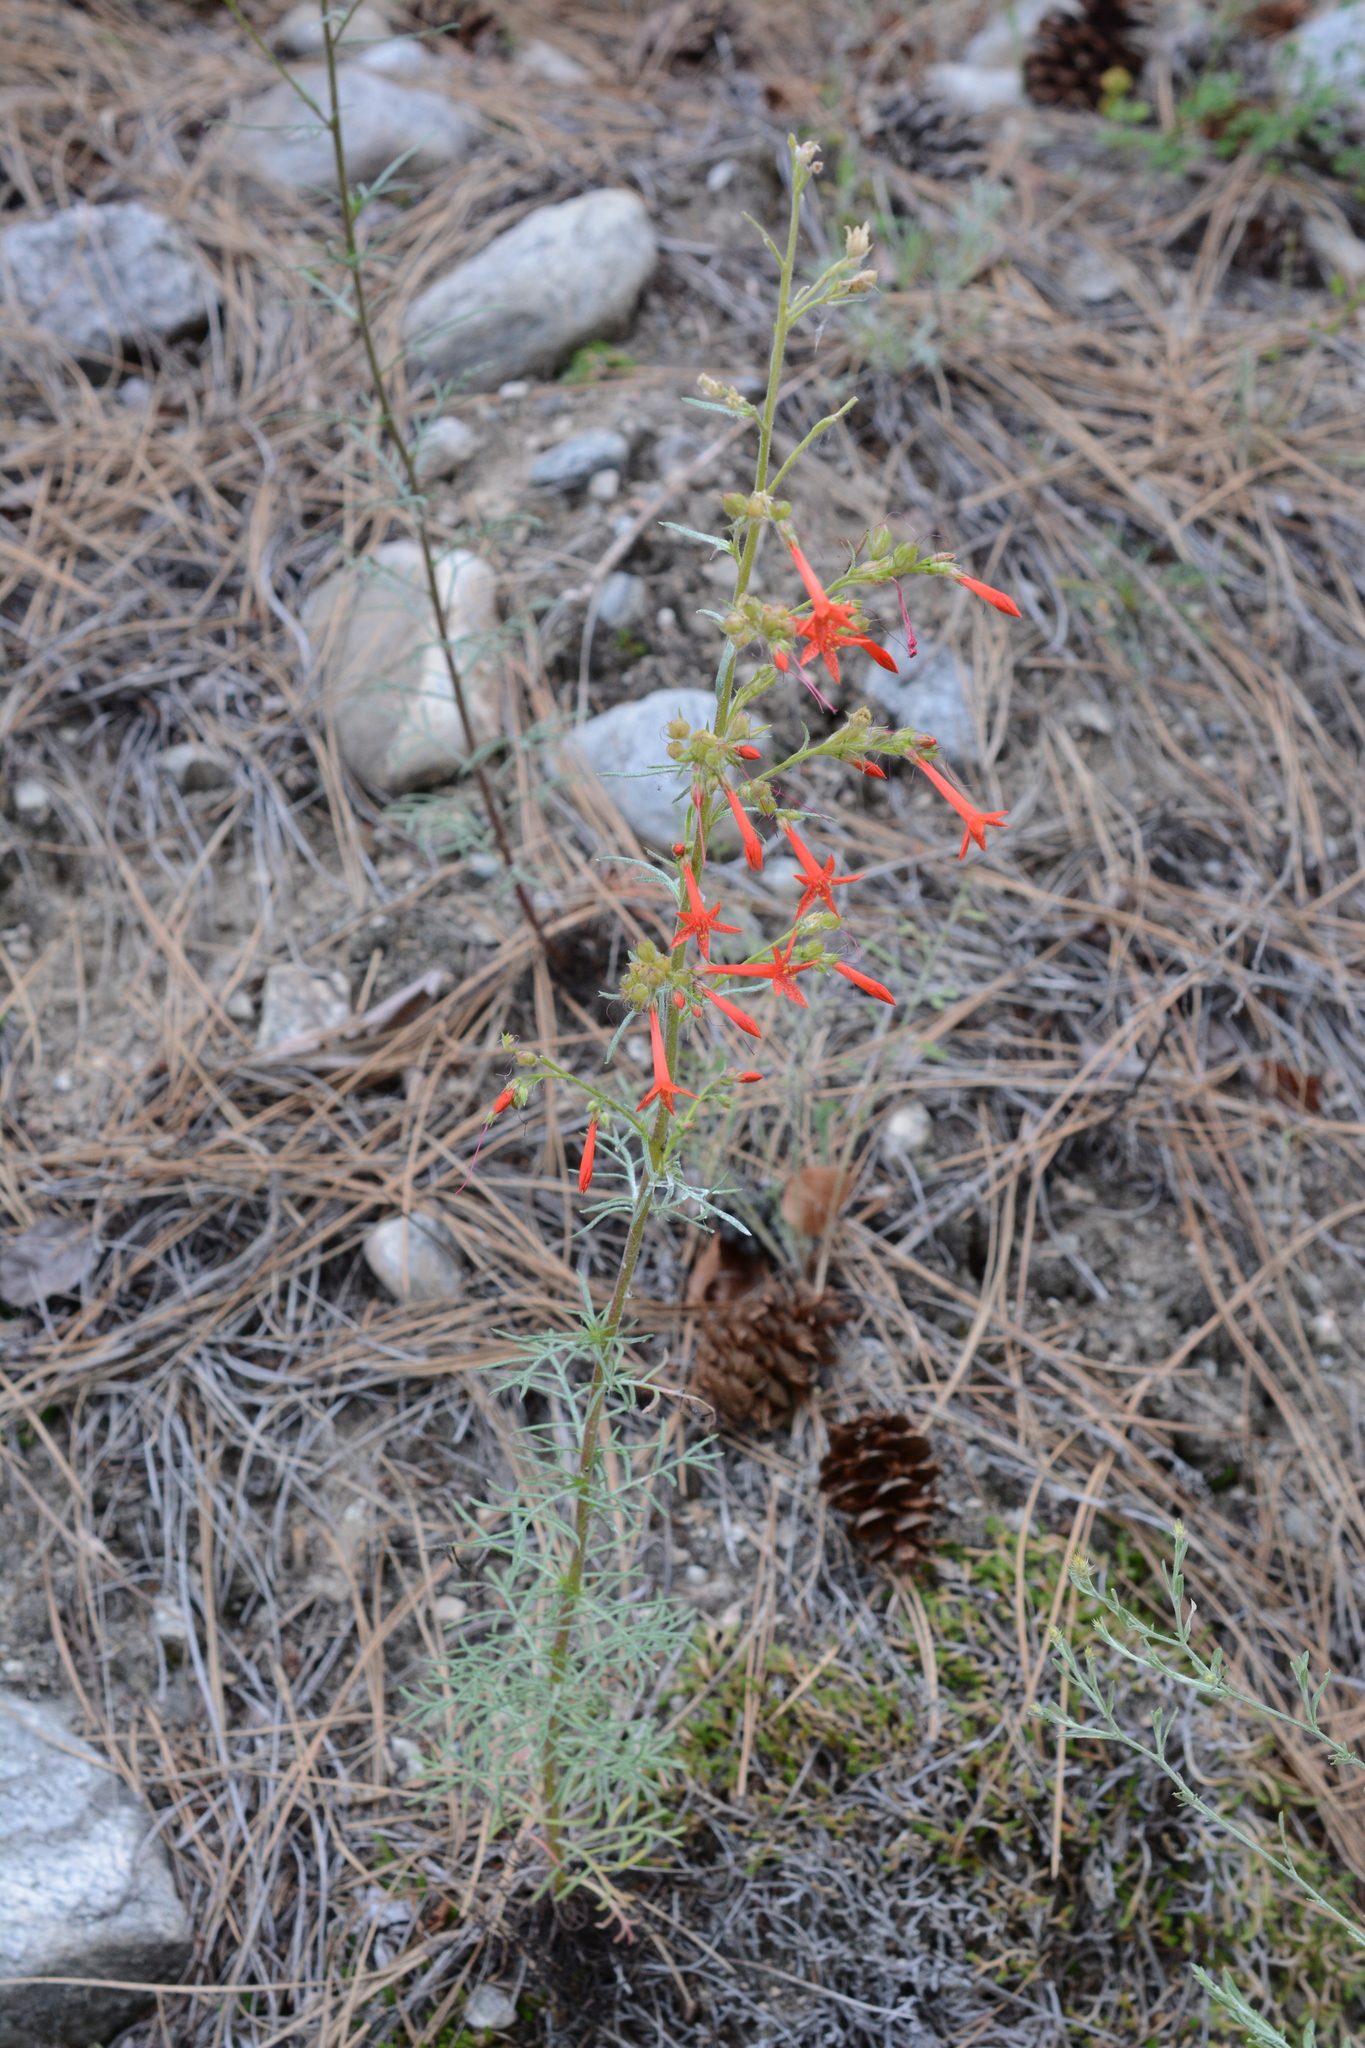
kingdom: Plantae
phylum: Tracheophyta
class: Magnoliopsida
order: Ericales
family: Polemoniaceae
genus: Ipomopsis
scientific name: Ipomopsis aggregata
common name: Scarlet gilia
